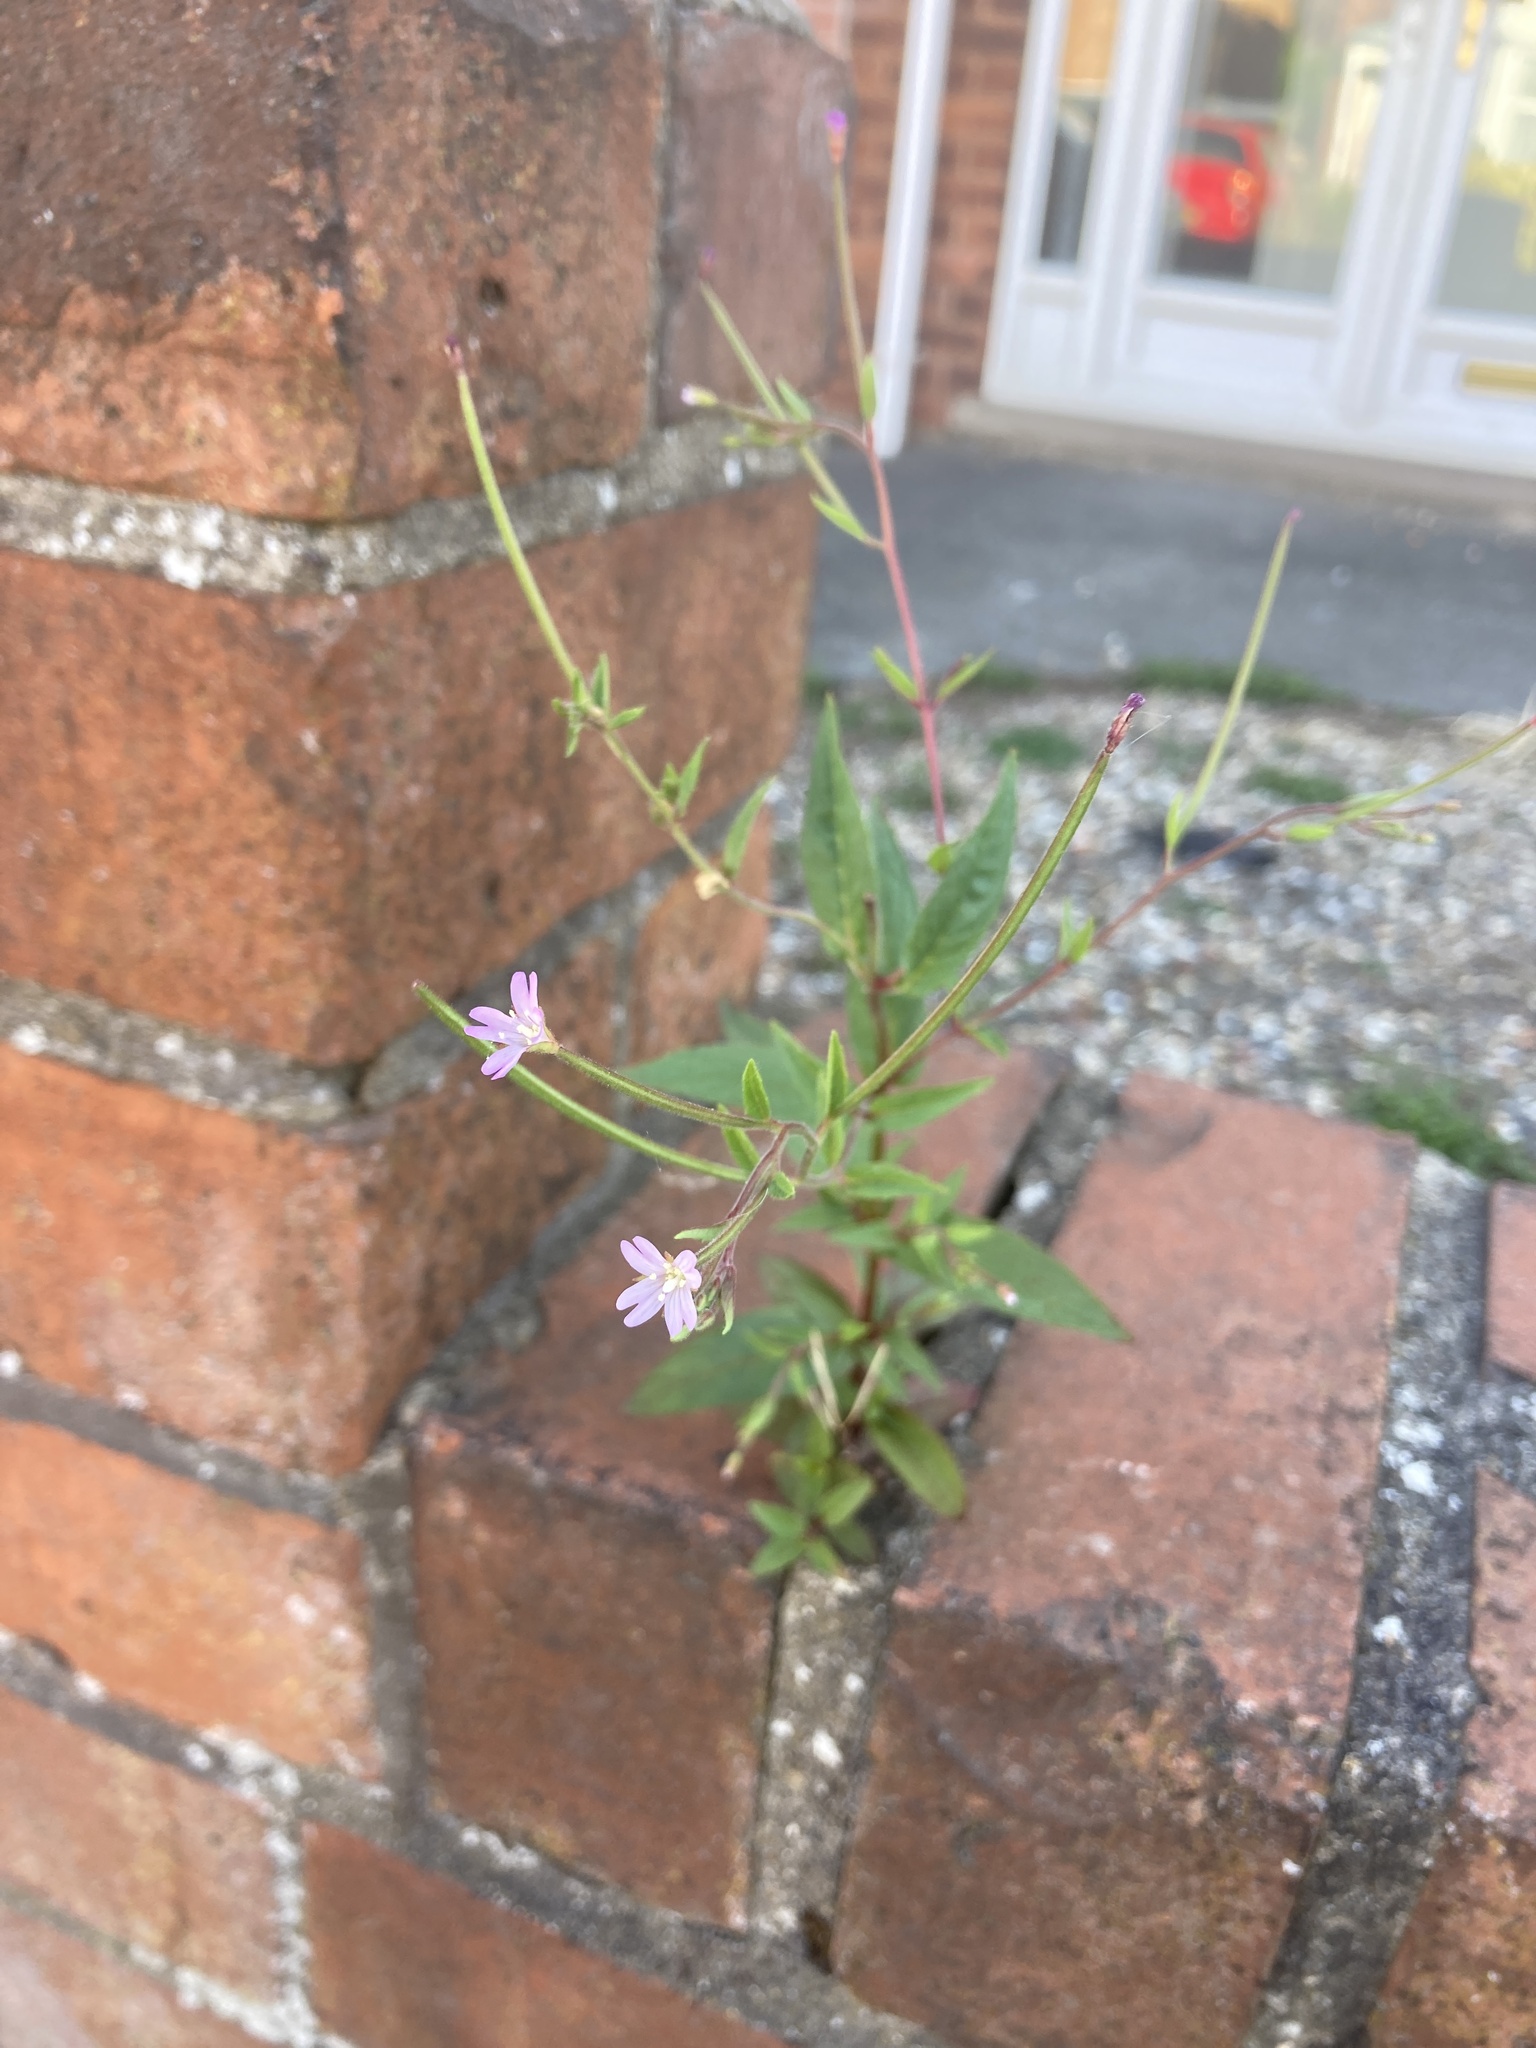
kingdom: Plantae
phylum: Tracheophyta
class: Magnoliopsida
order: Myrtales
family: Onagraceae
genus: Epilobium
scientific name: Epilobium ciliatum
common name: American willowherb
